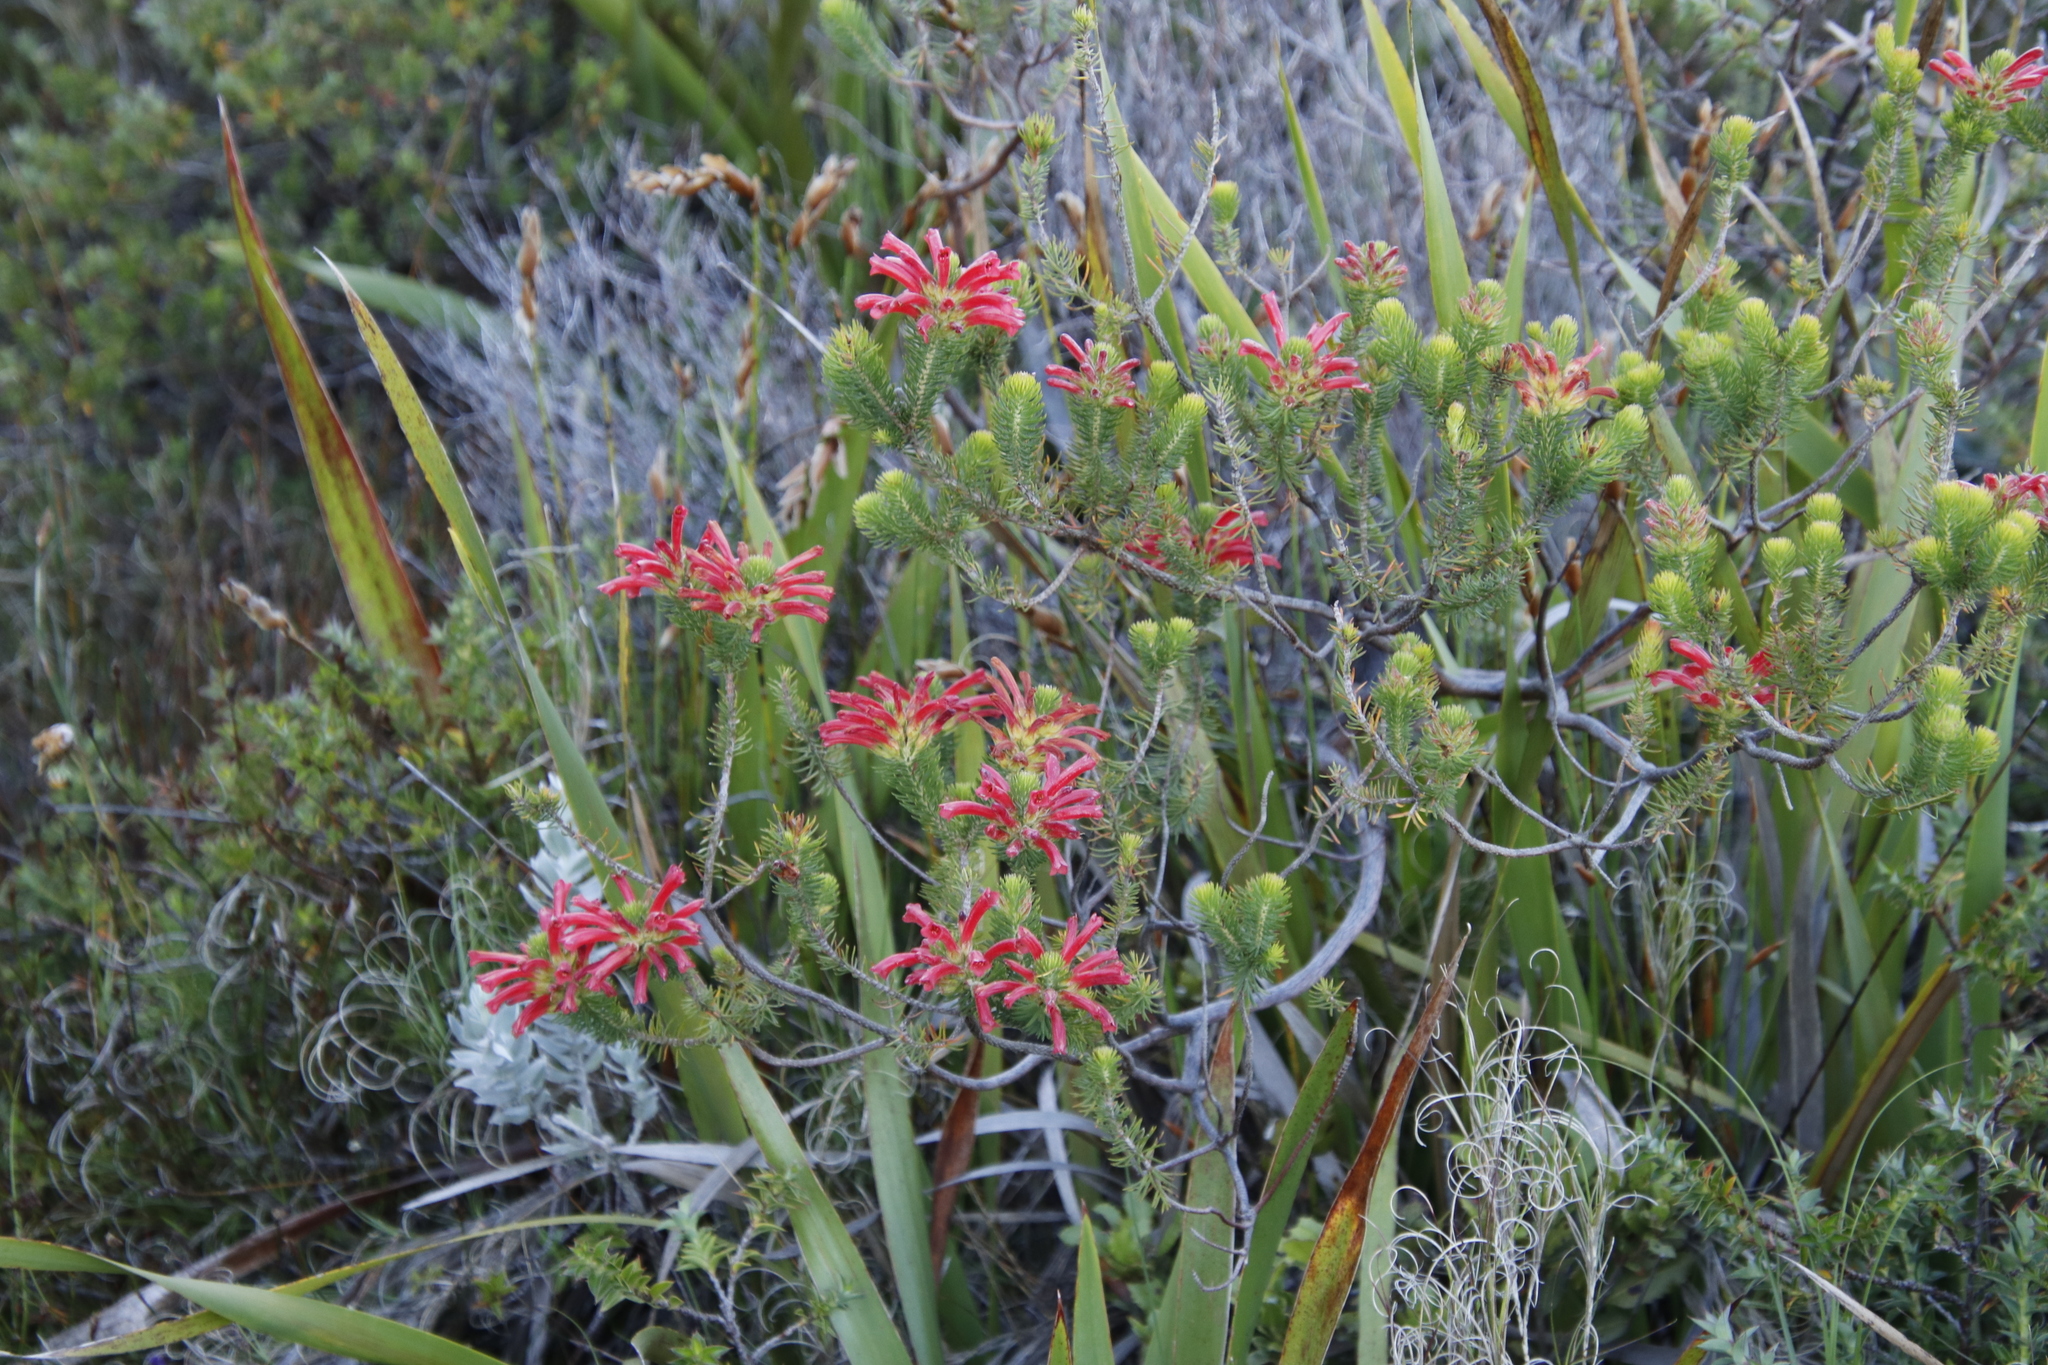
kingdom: Plantae
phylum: Tracheophyta
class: Magnoliopsida
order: Ericales
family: Ericaceae
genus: Erica
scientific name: Erica abietina
